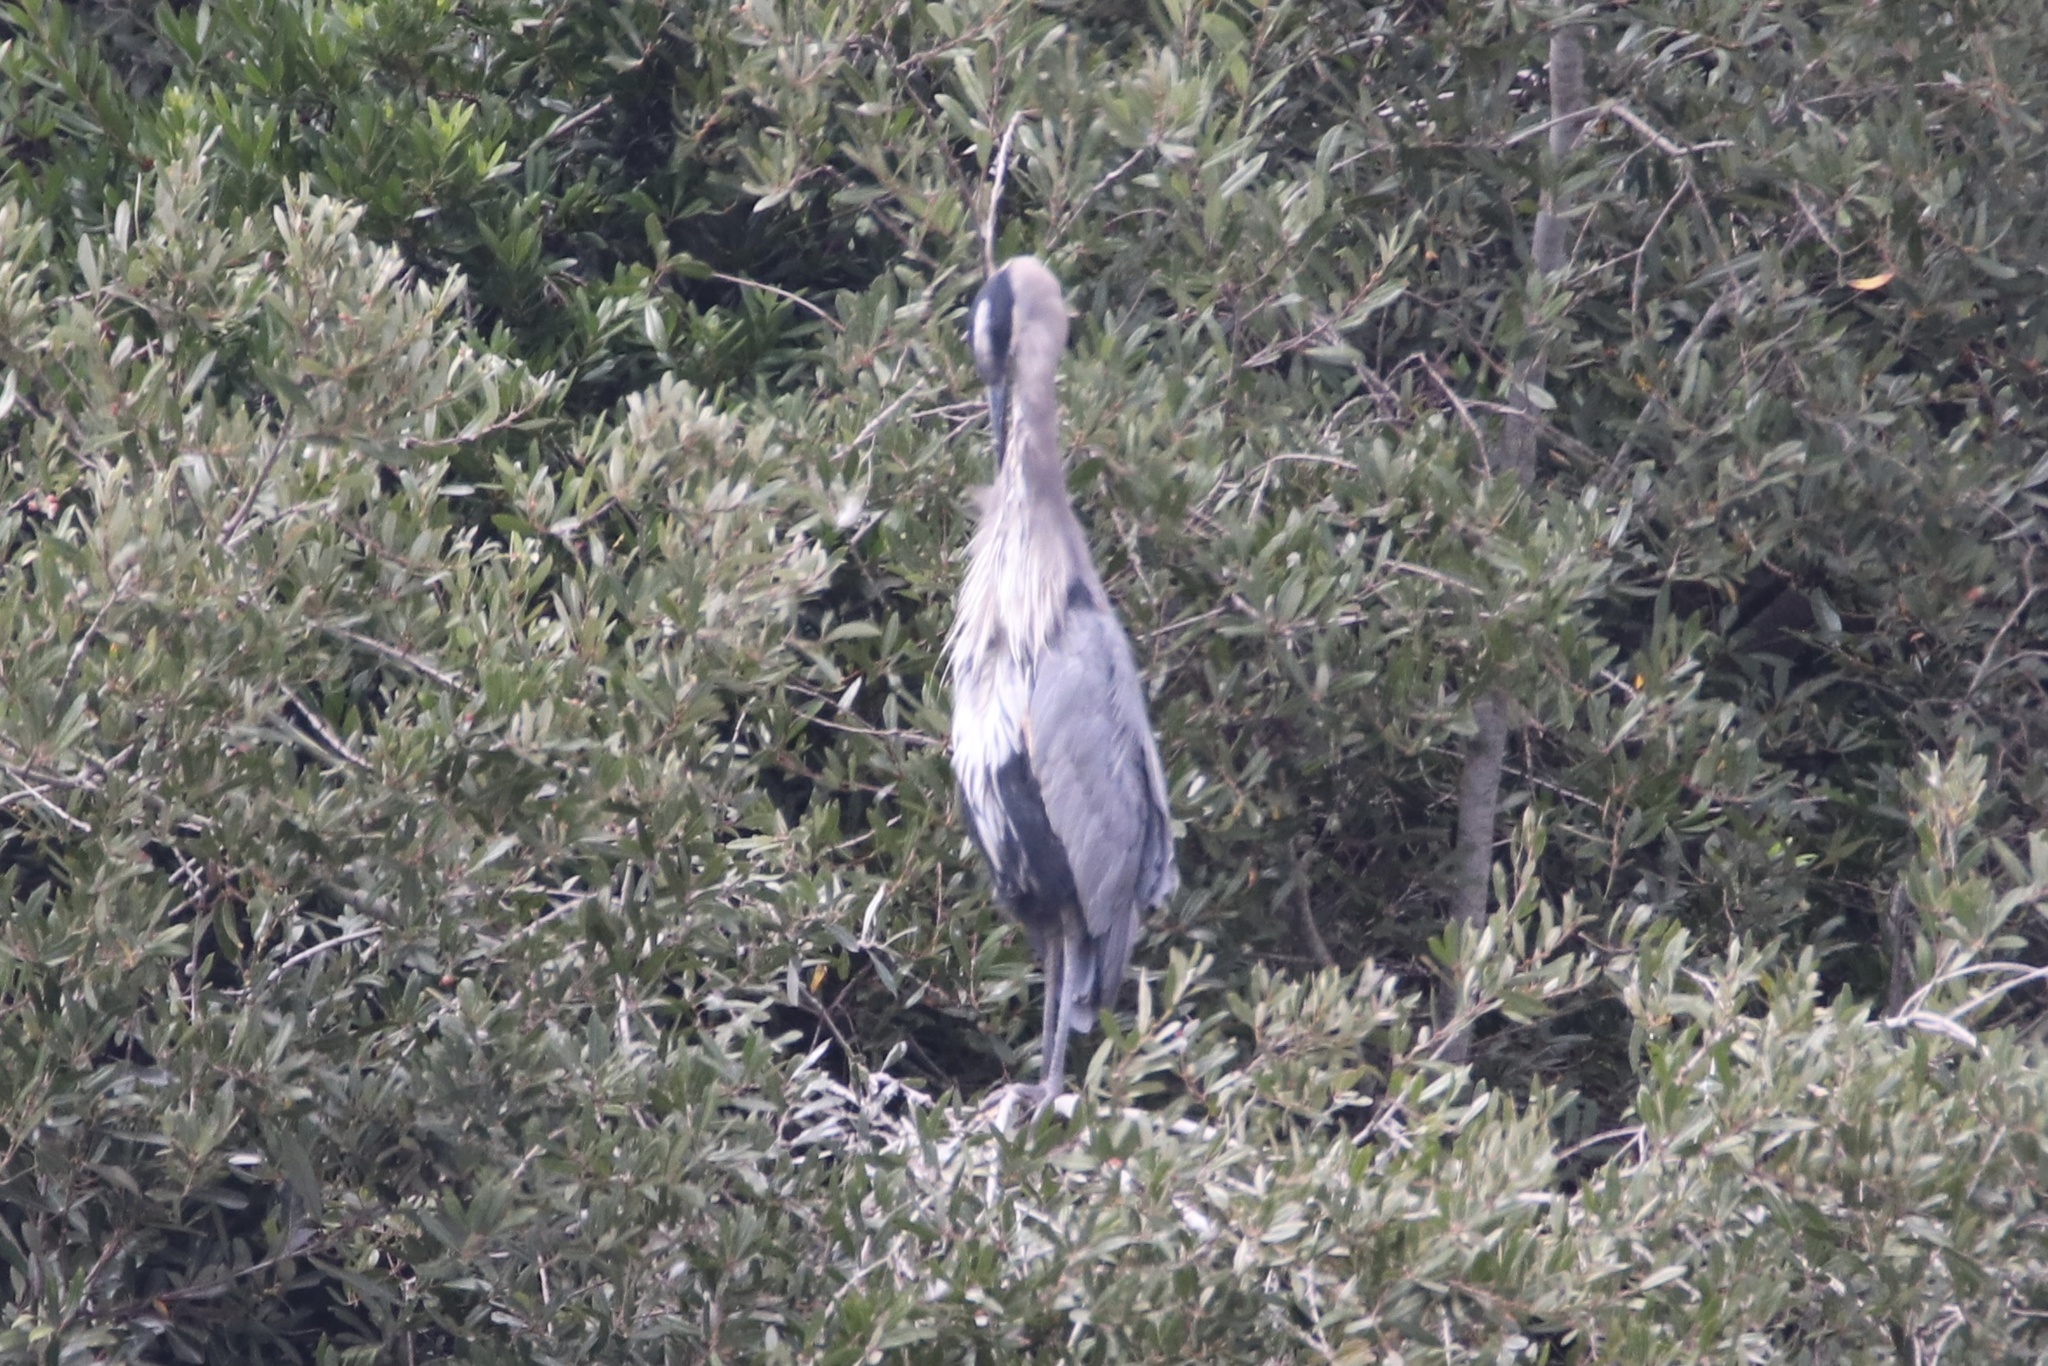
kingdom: Animalia
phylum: Chordata
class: Aves
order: Pelecaniformes
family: Ardeidae
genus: Ardea
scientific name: Ardea herodias
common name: Great blue heron
